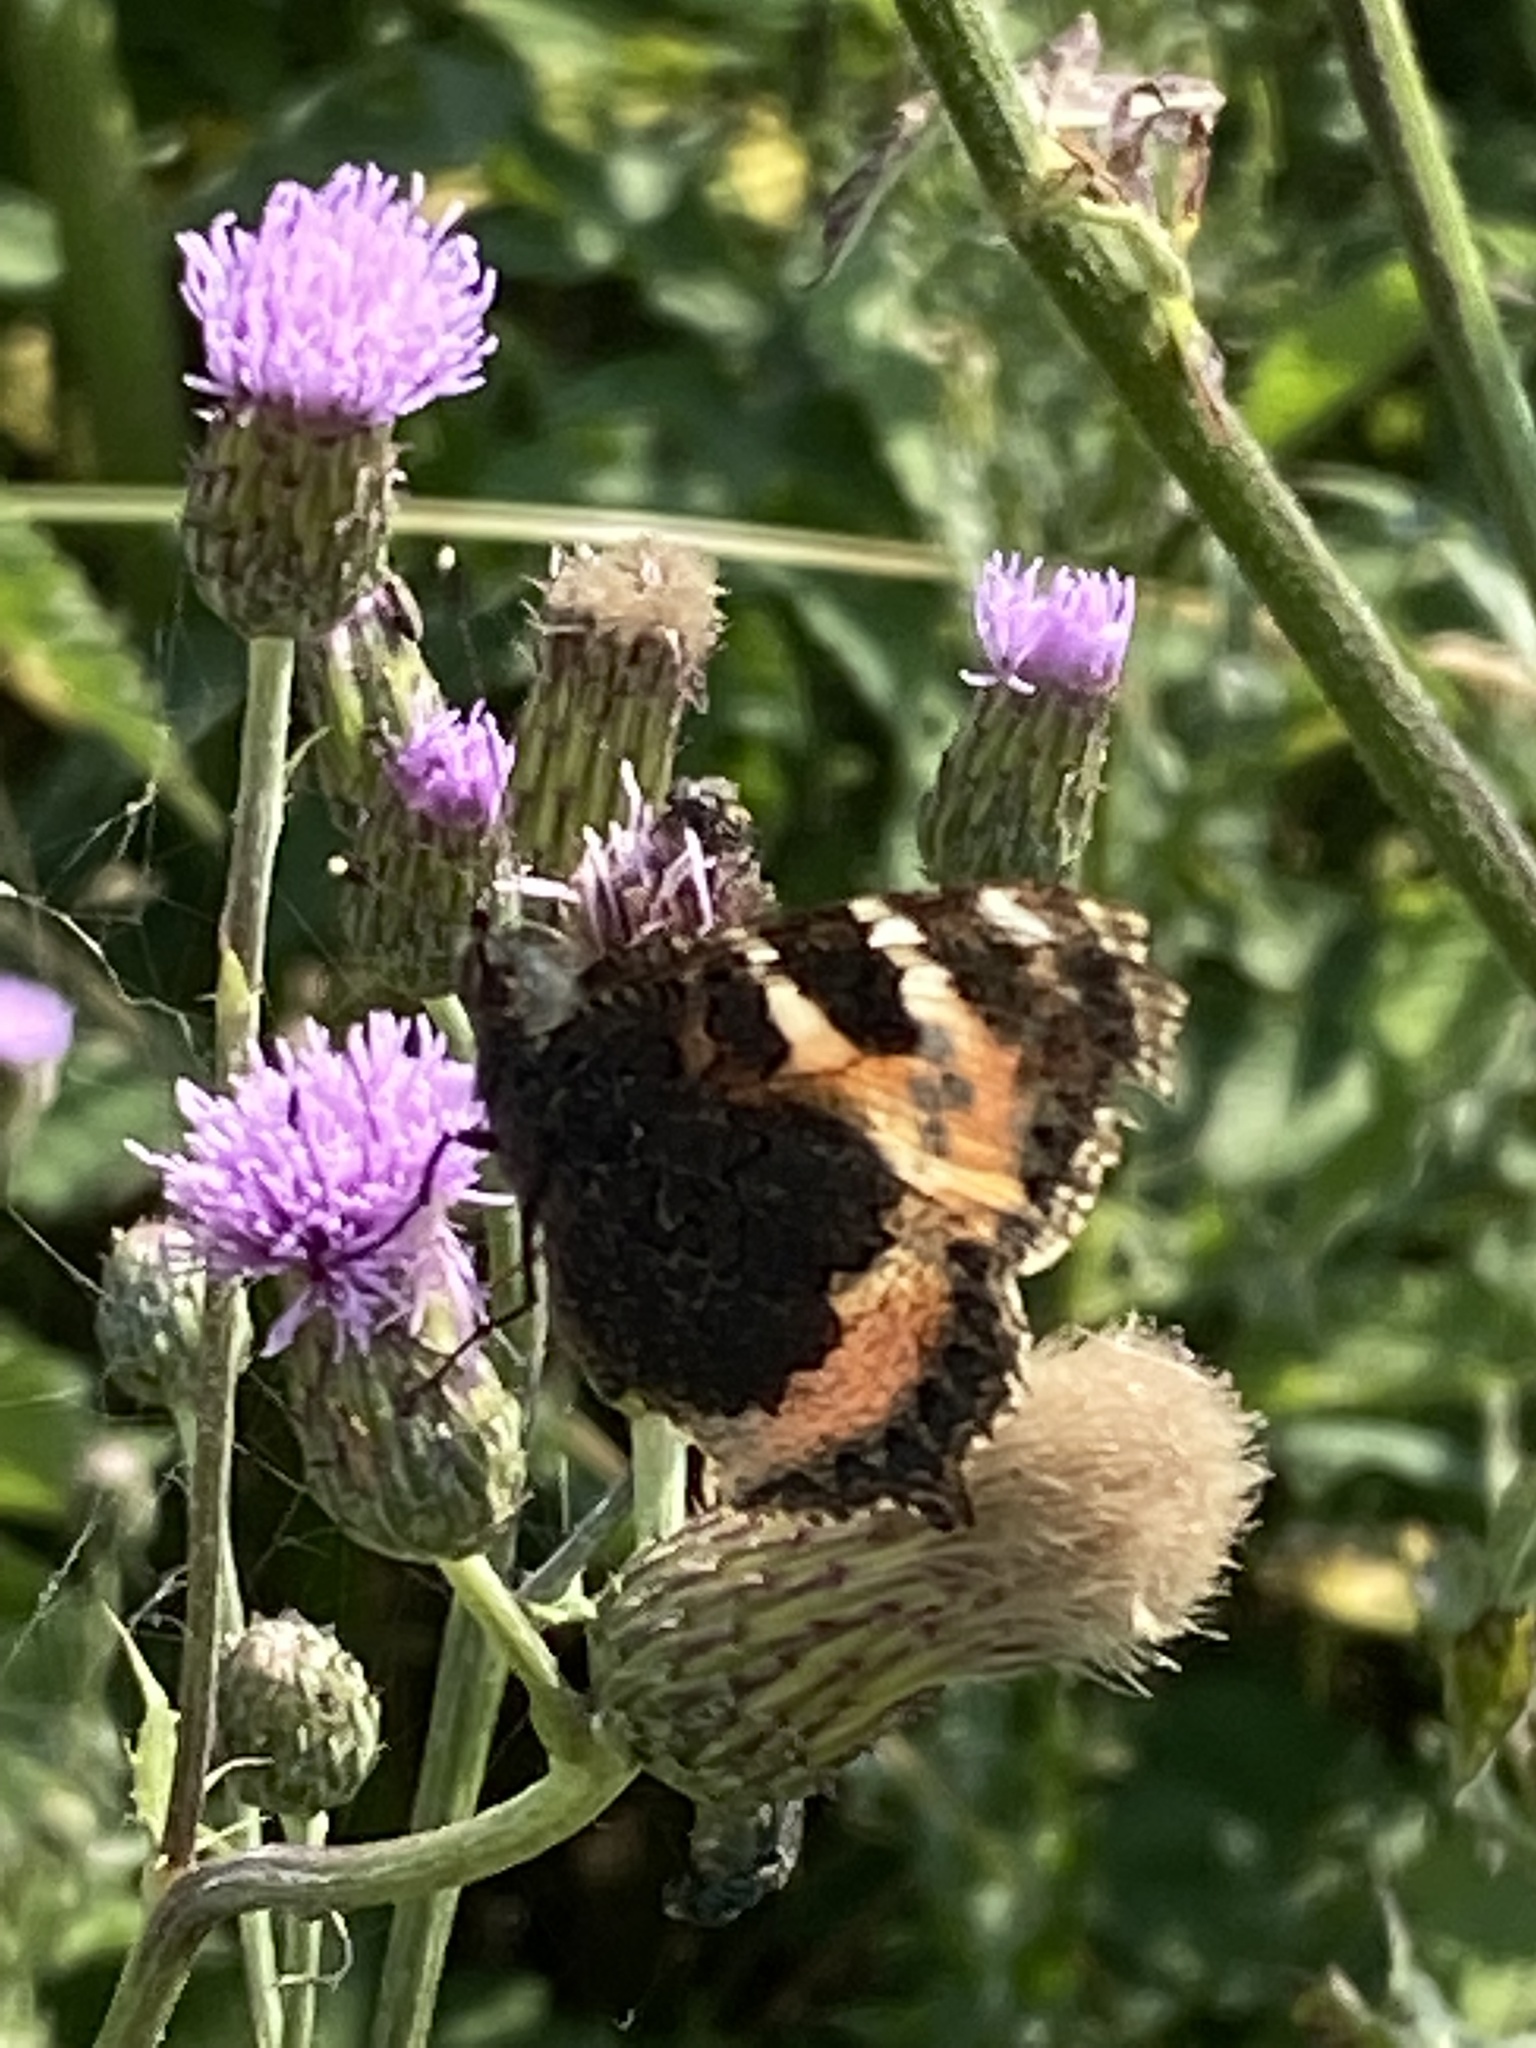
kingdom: Animalia
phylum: Arthropoda
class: Insecta
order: Lepidoptera
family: Nymphalidae
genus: Aglais
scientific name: Aglais urticae
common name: Small tortoiseshell
